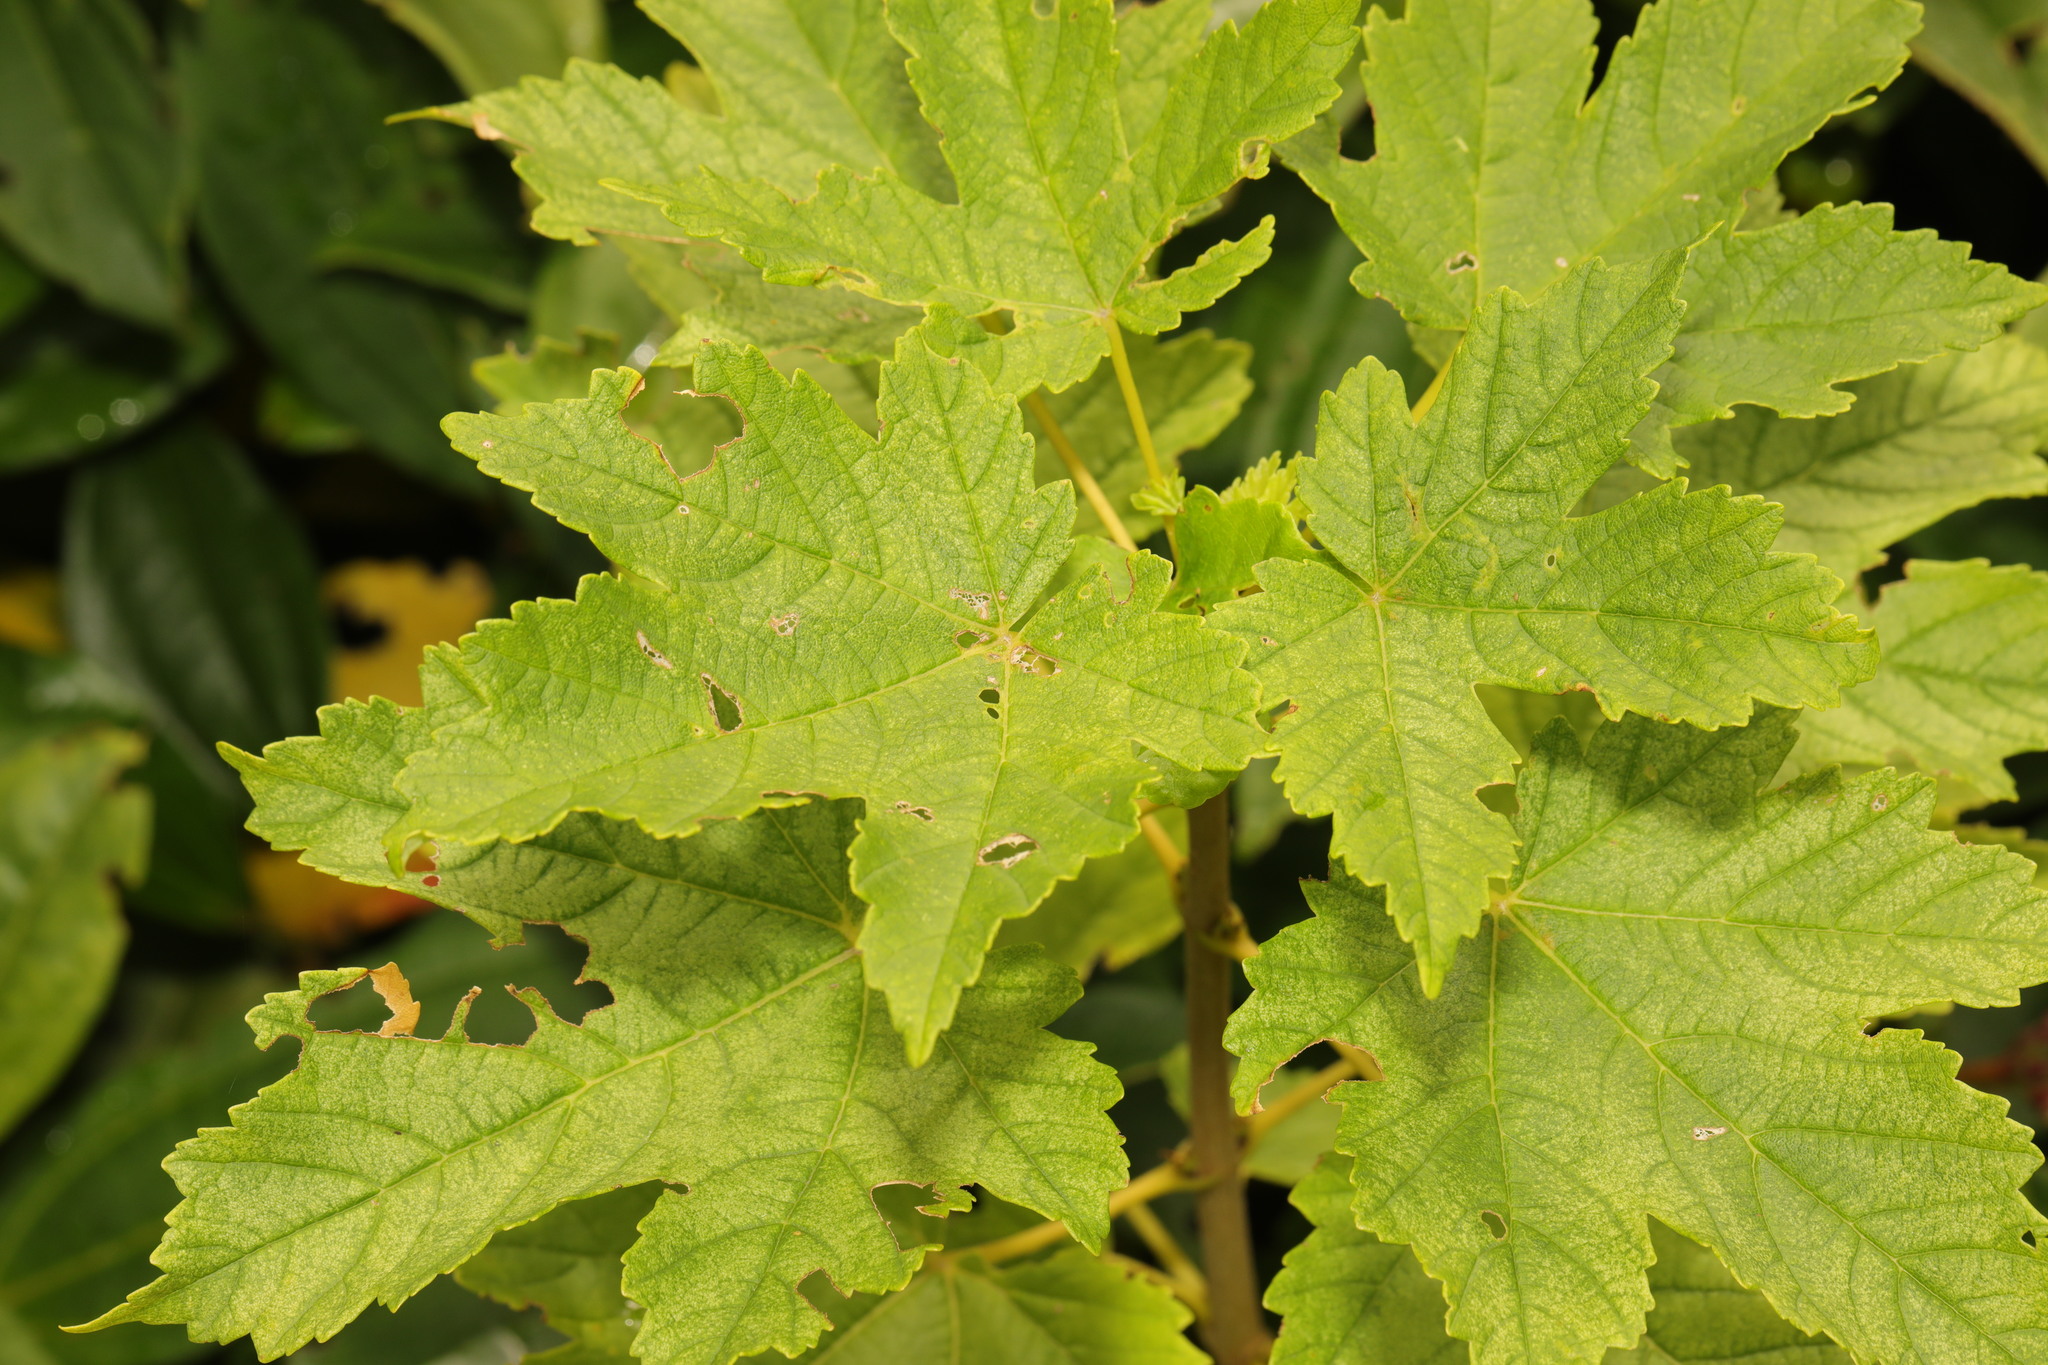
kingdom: Plantae
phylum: Tracheophyta
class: Magnoliopsida
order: Sapindales
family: Sapindaceae
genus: Acer
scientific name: Acer pseudoplatanus
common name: Sycamore
